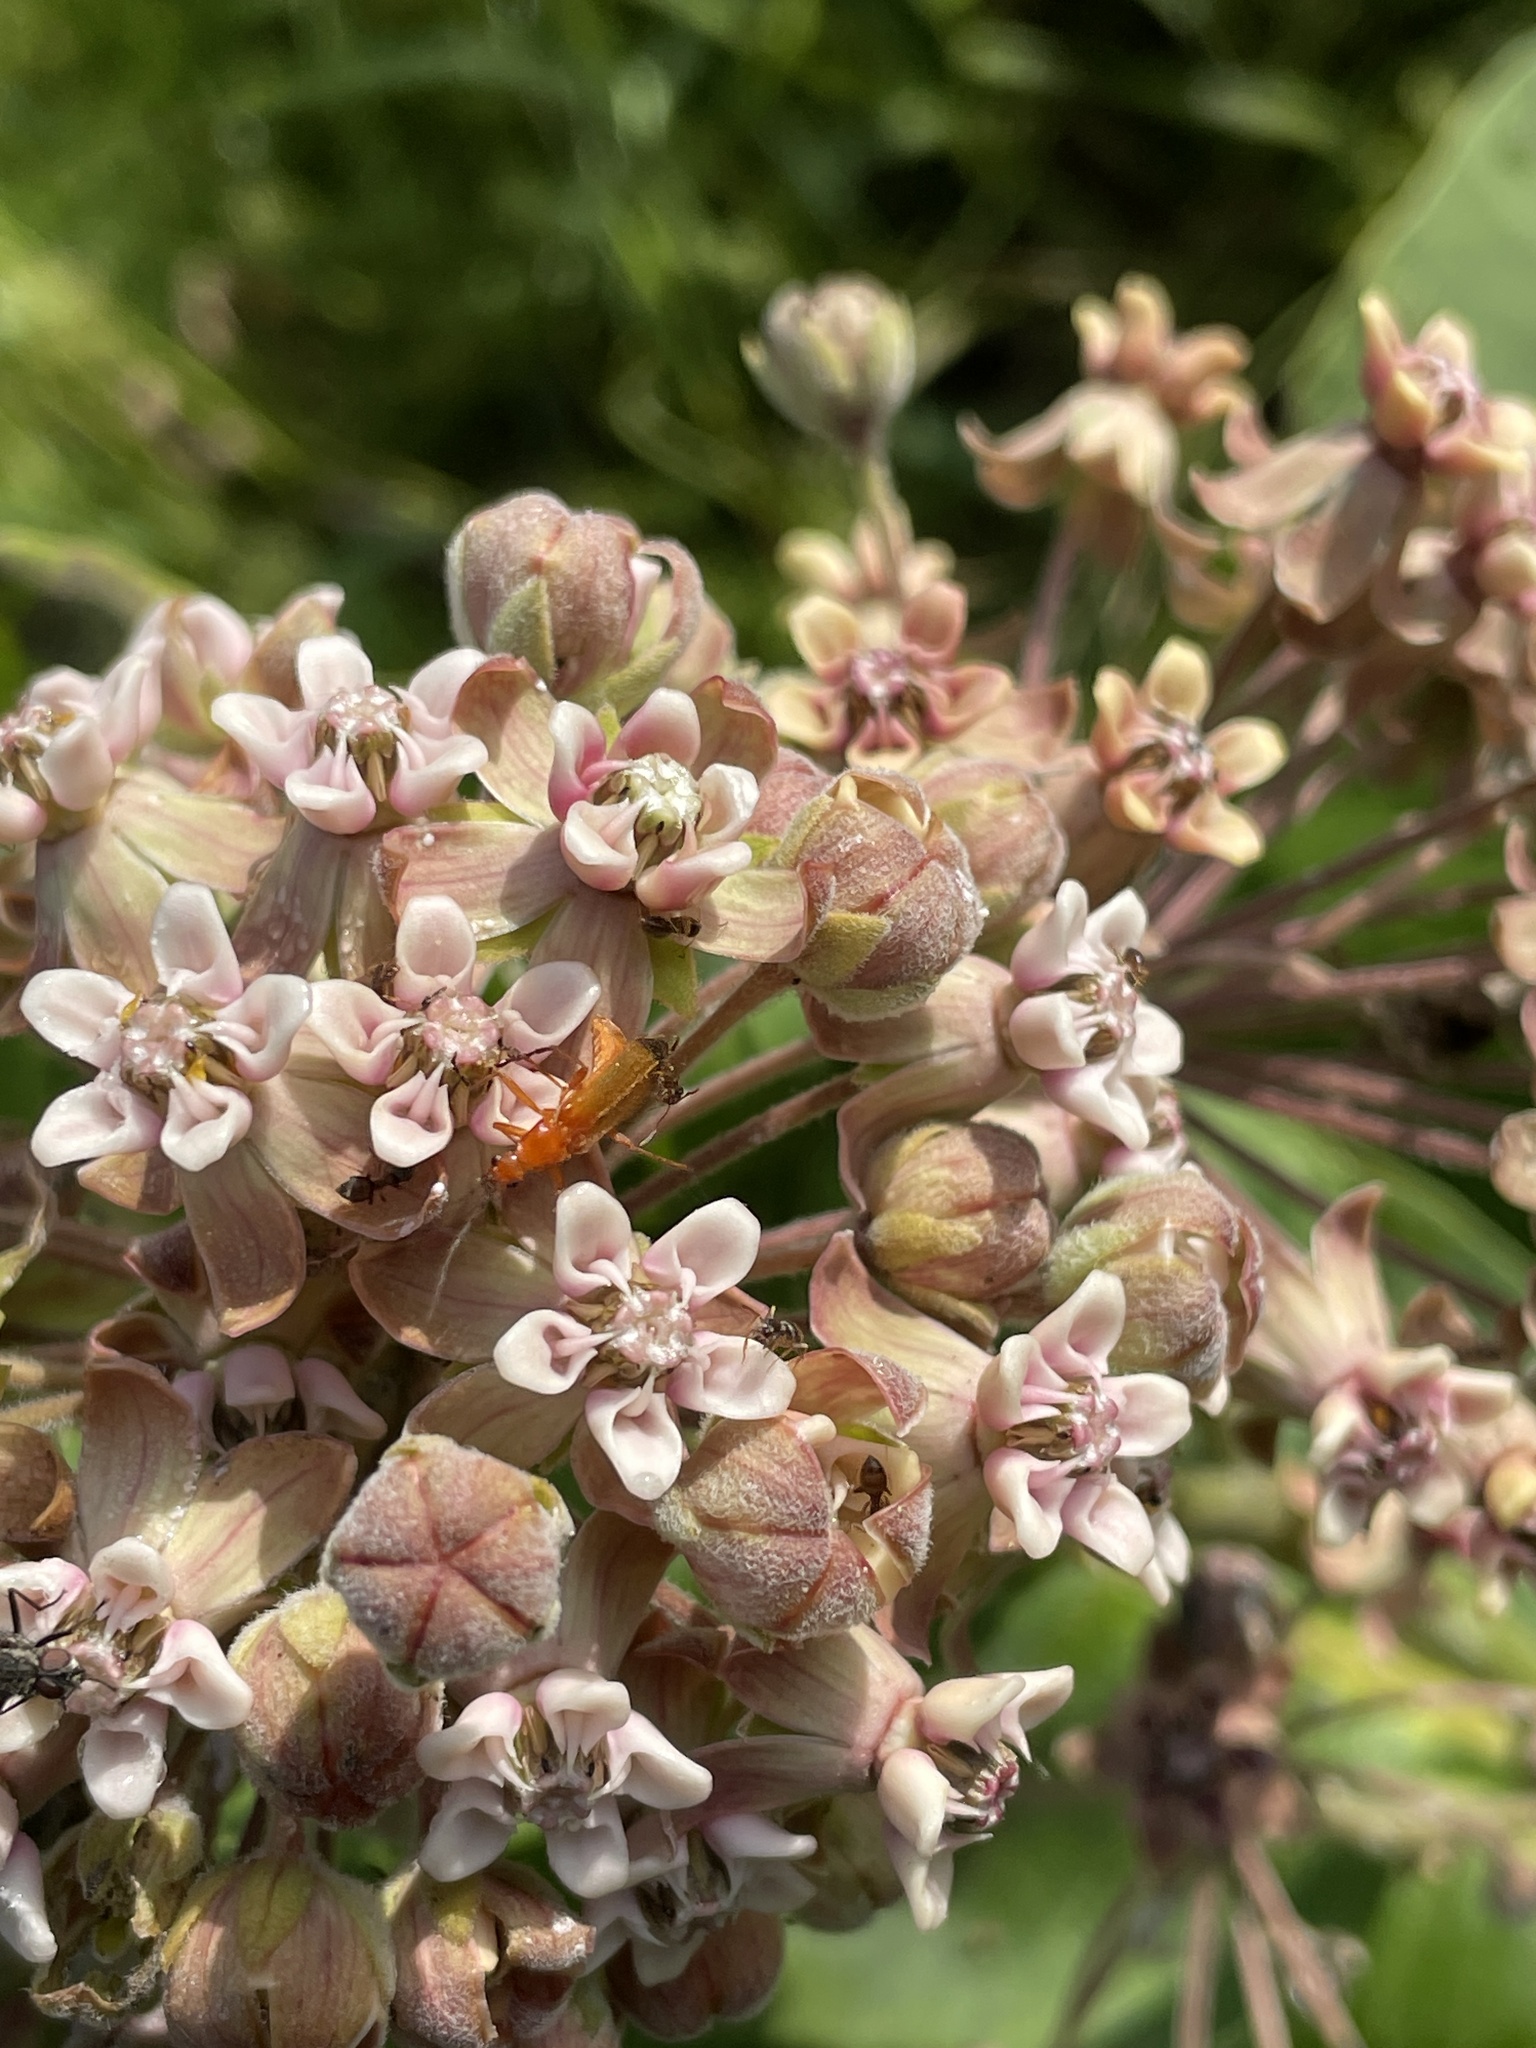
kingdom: Animalia
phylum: Arthropoda
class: Insecta
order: Coleoptera
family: Cantharidae
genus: Rhagonycha
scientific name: Rhagonycha fulva
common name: Common red soldier beetle
